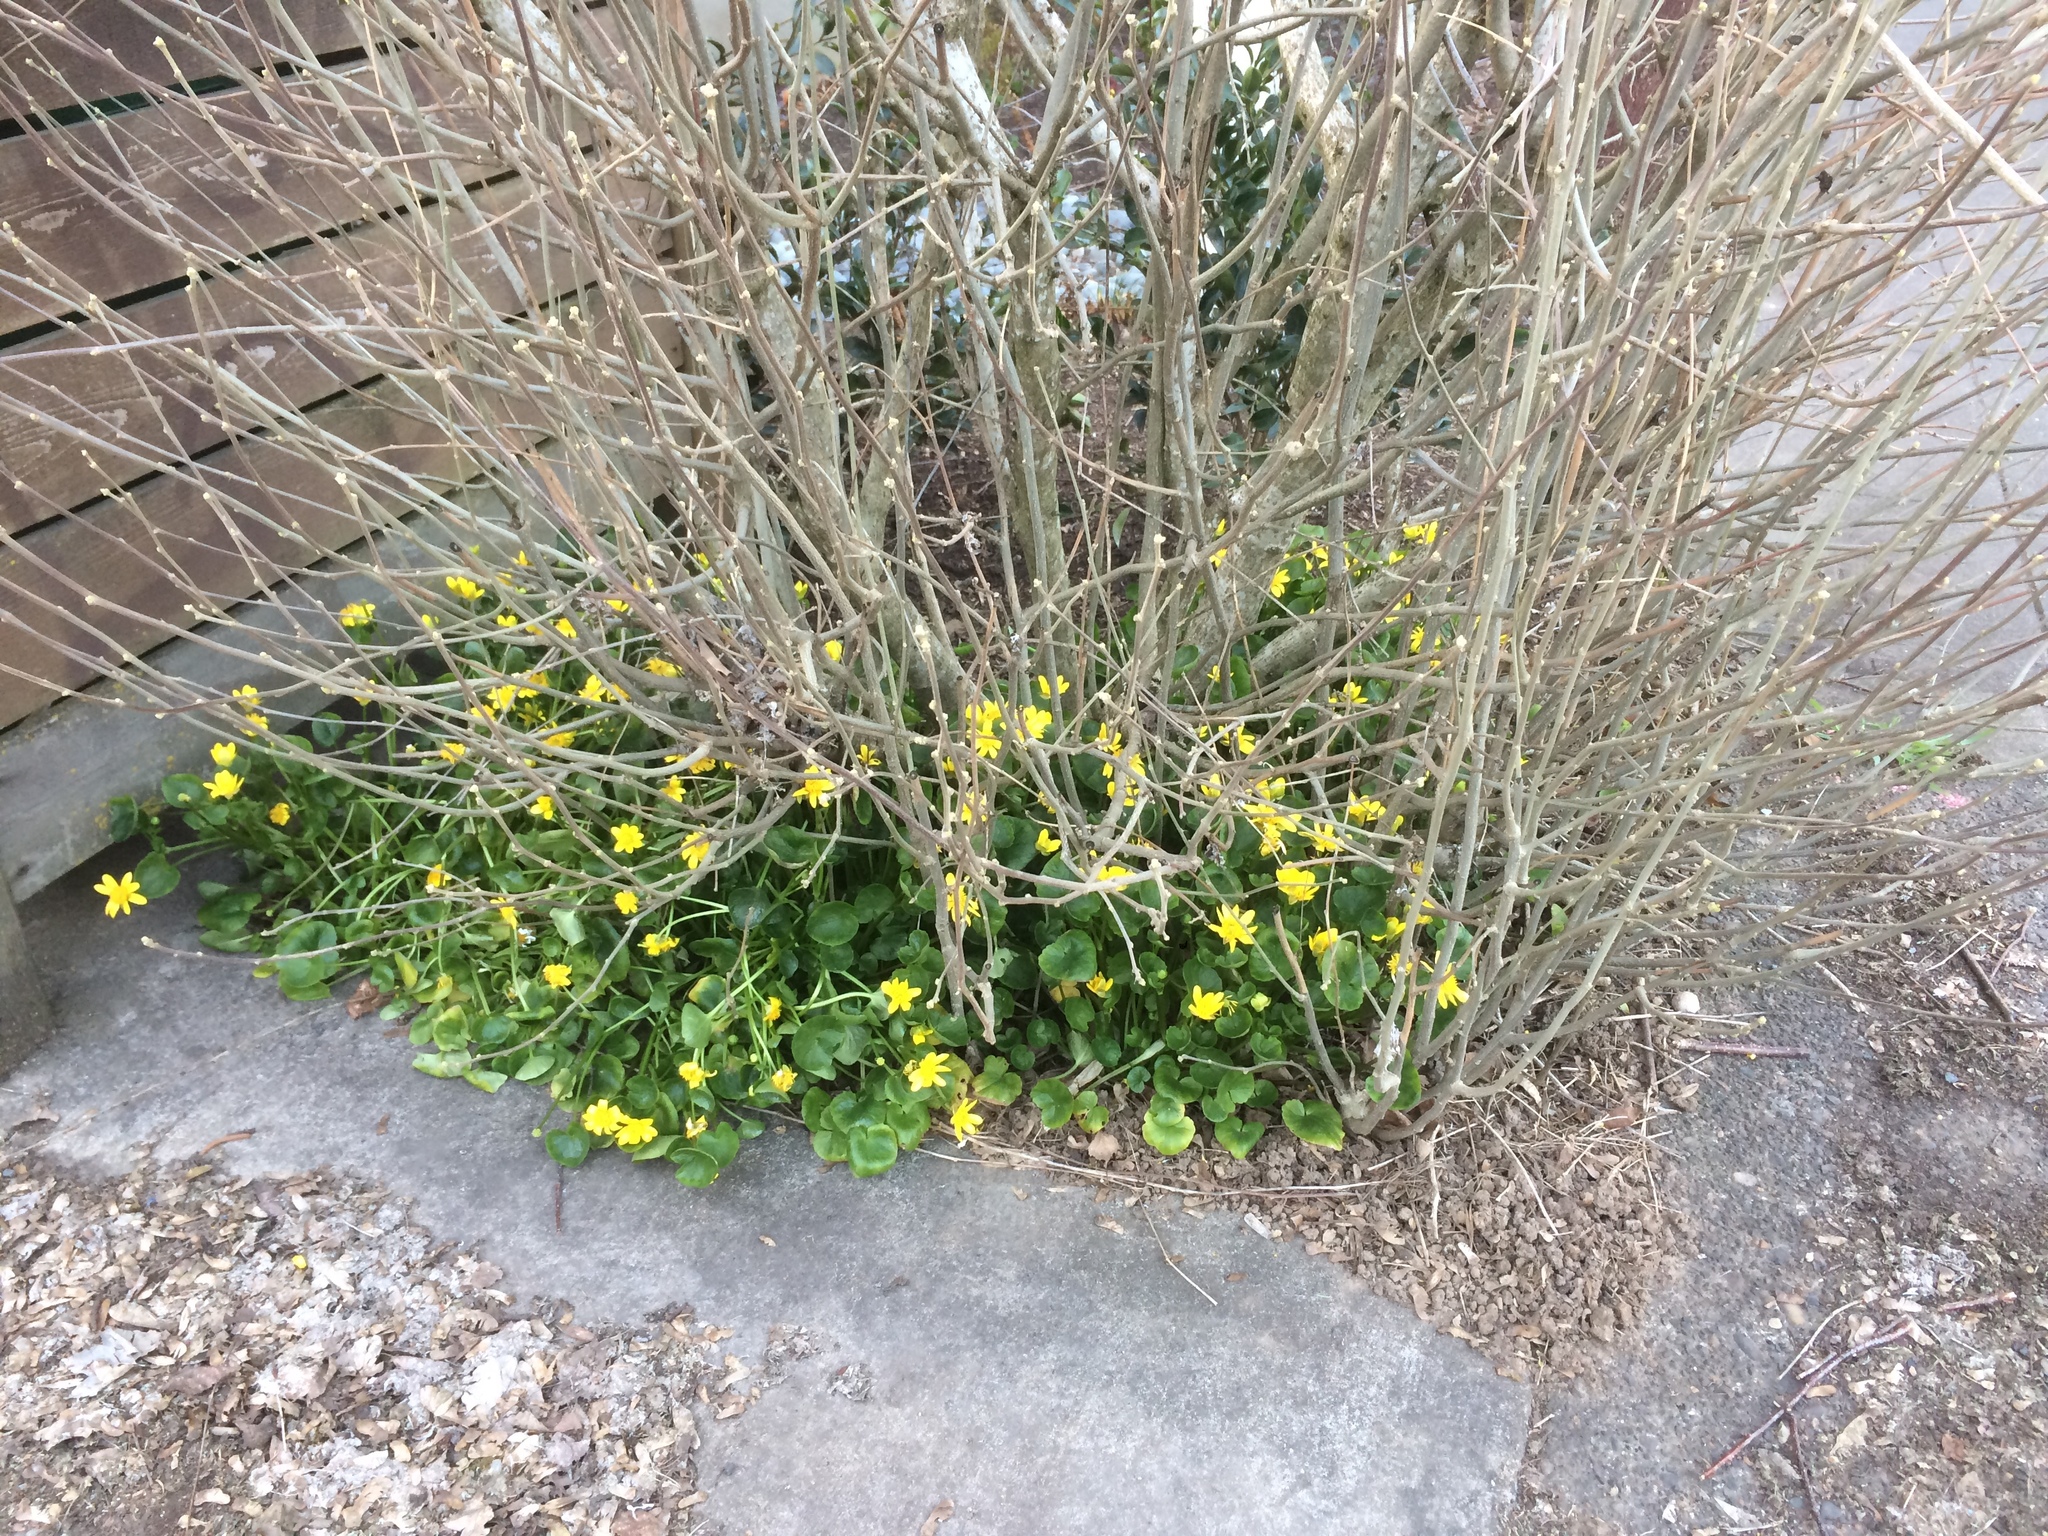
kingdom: Plantae
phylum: Tracheophyta
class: Magnoliopsida
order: Ranunculales
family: Ranunculaceae
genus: Ficaria
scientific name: Ficaria verna
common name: Lesser celandine
